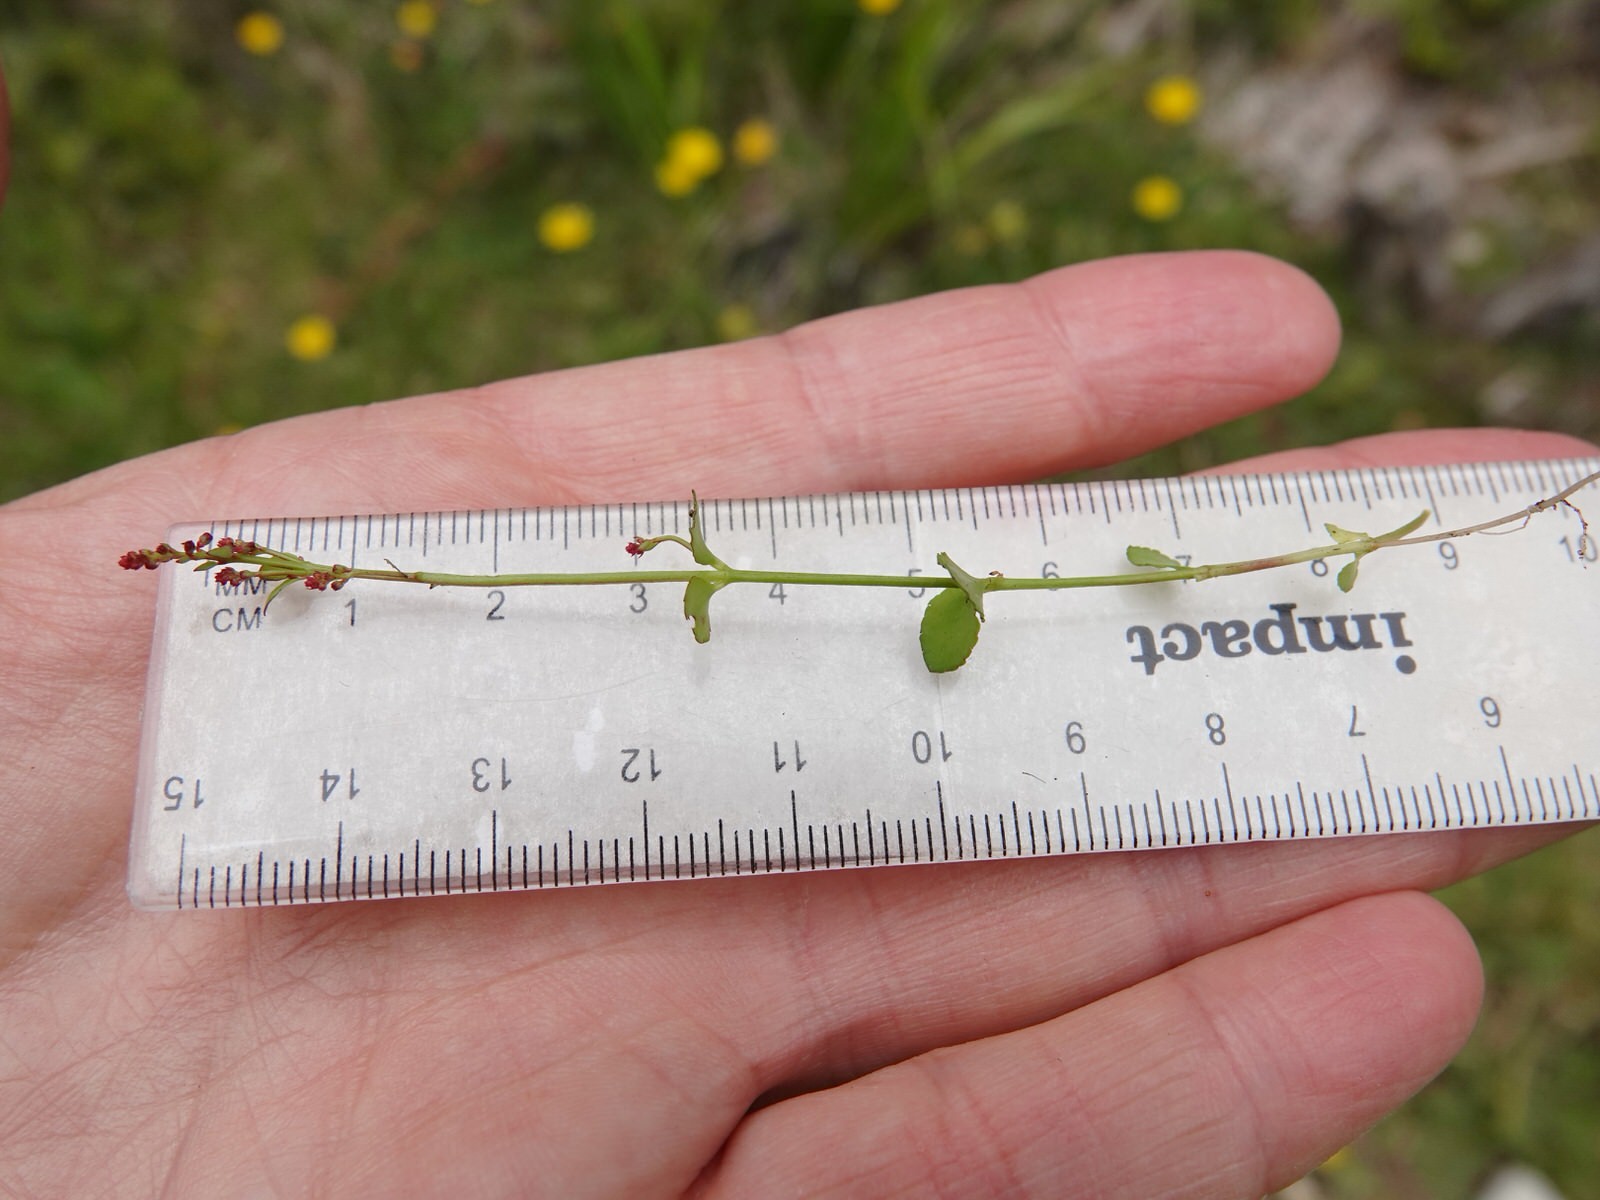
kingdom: Plantae
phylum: Tracheophyta
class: Magnoliopsida
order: Saxifragales
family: Haloragaceae
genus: Gonocarpus
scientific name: Gonocarpus micranthus
